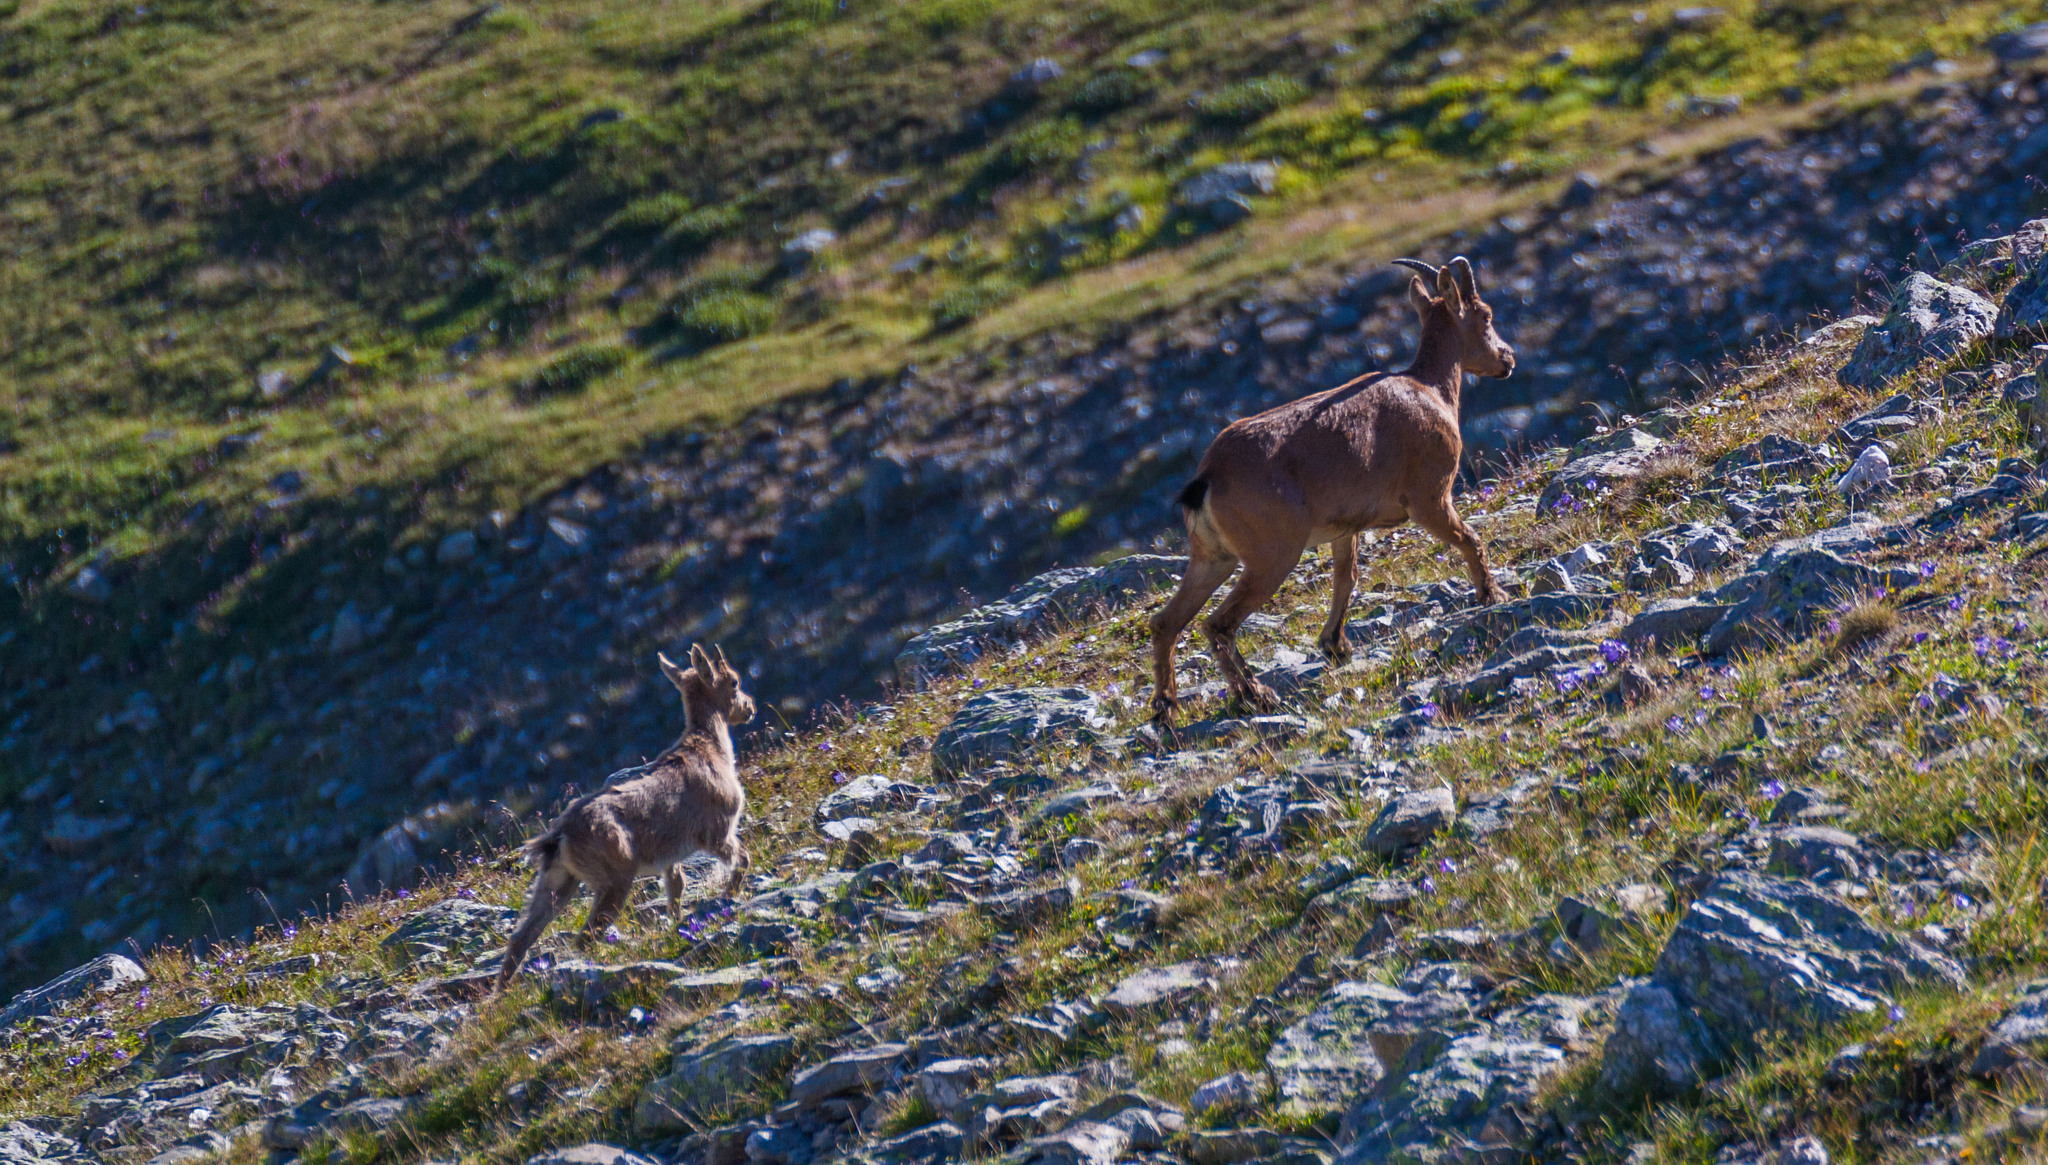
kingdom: Animalia
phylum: Chordata
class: Mammalia
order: Artiodactyla
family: Bovidae
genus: Capra
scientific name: Capra caucasica
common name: Tur
